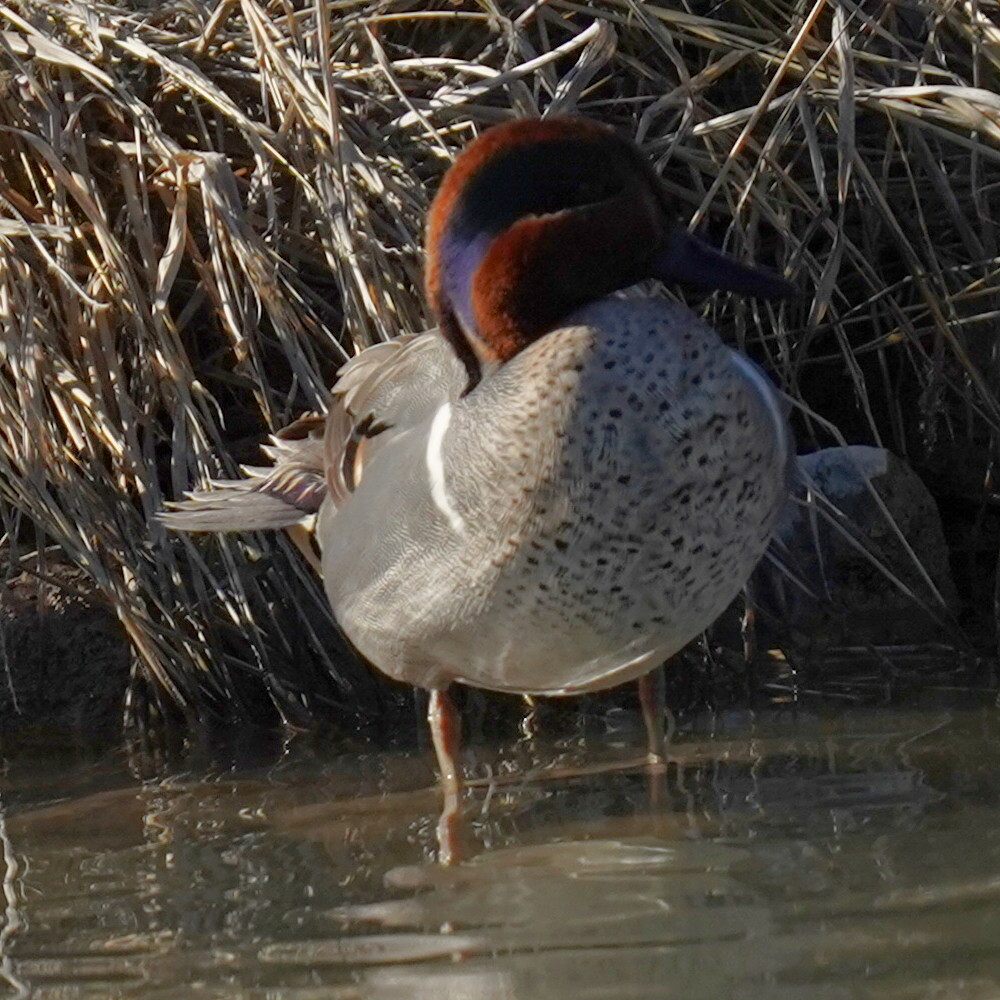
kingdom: Animalia
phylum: Chordata
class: Aves
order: Anseriformes
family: Anatidae
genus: Anas
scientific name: Anas crecca
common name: Eurasian teal
